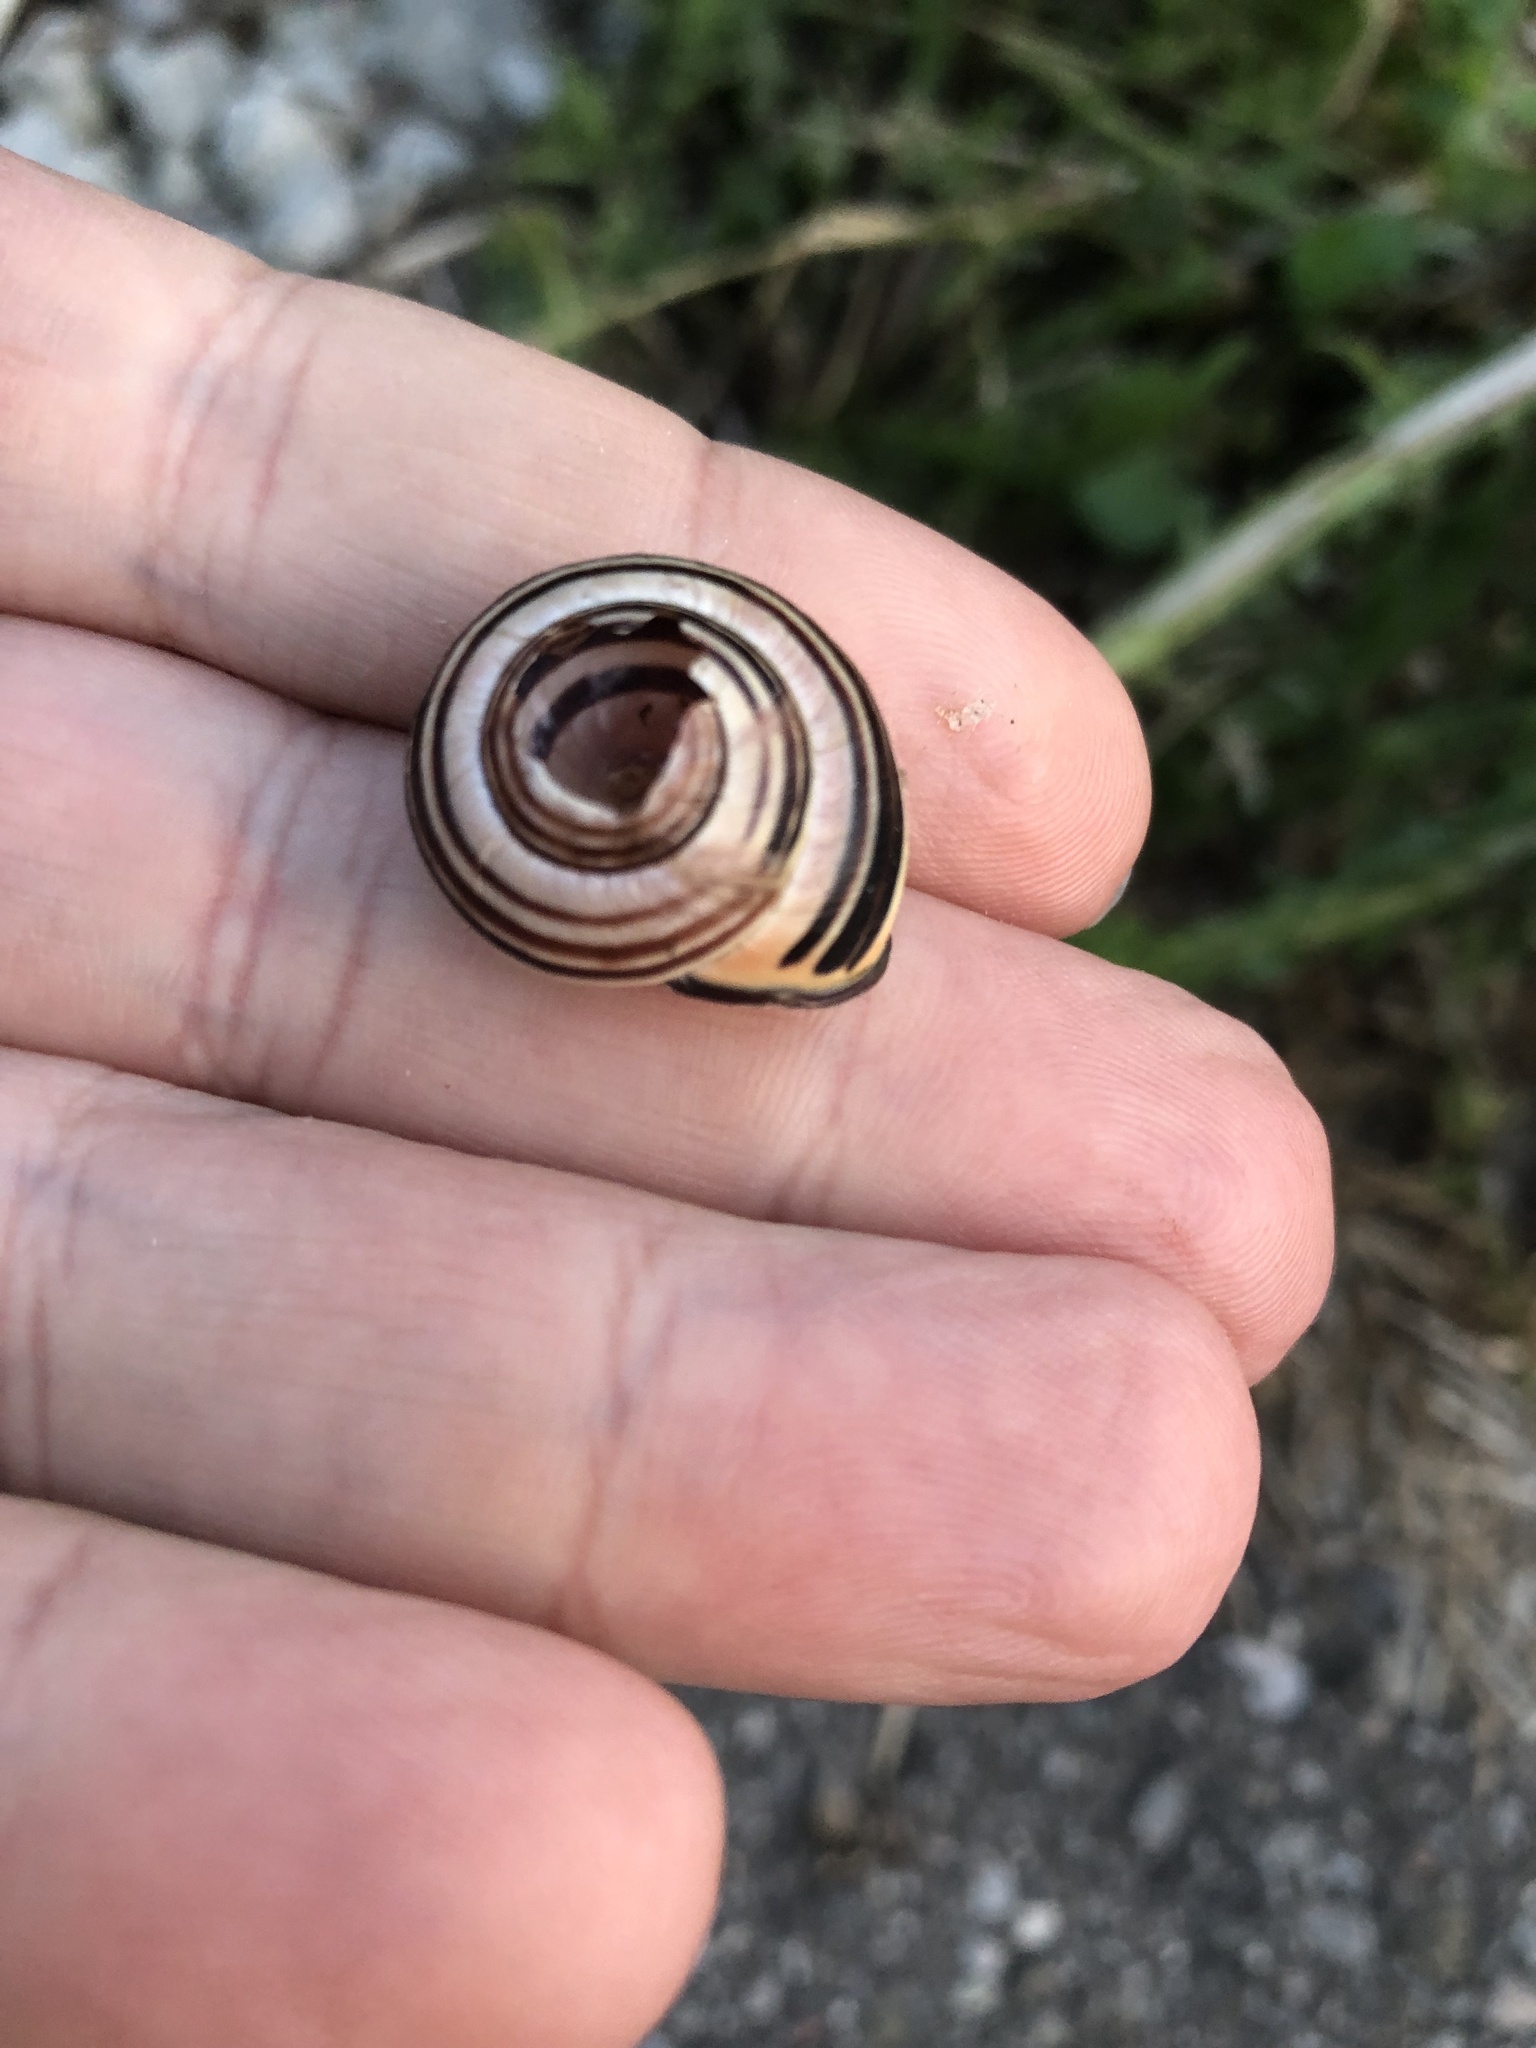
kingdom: Animalia
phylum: Mollusca
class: Gastropoda
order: Stylommatophora
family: Helicidae
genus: Cepaea
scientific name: Cepaea nemoralis
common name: Grovesnail
